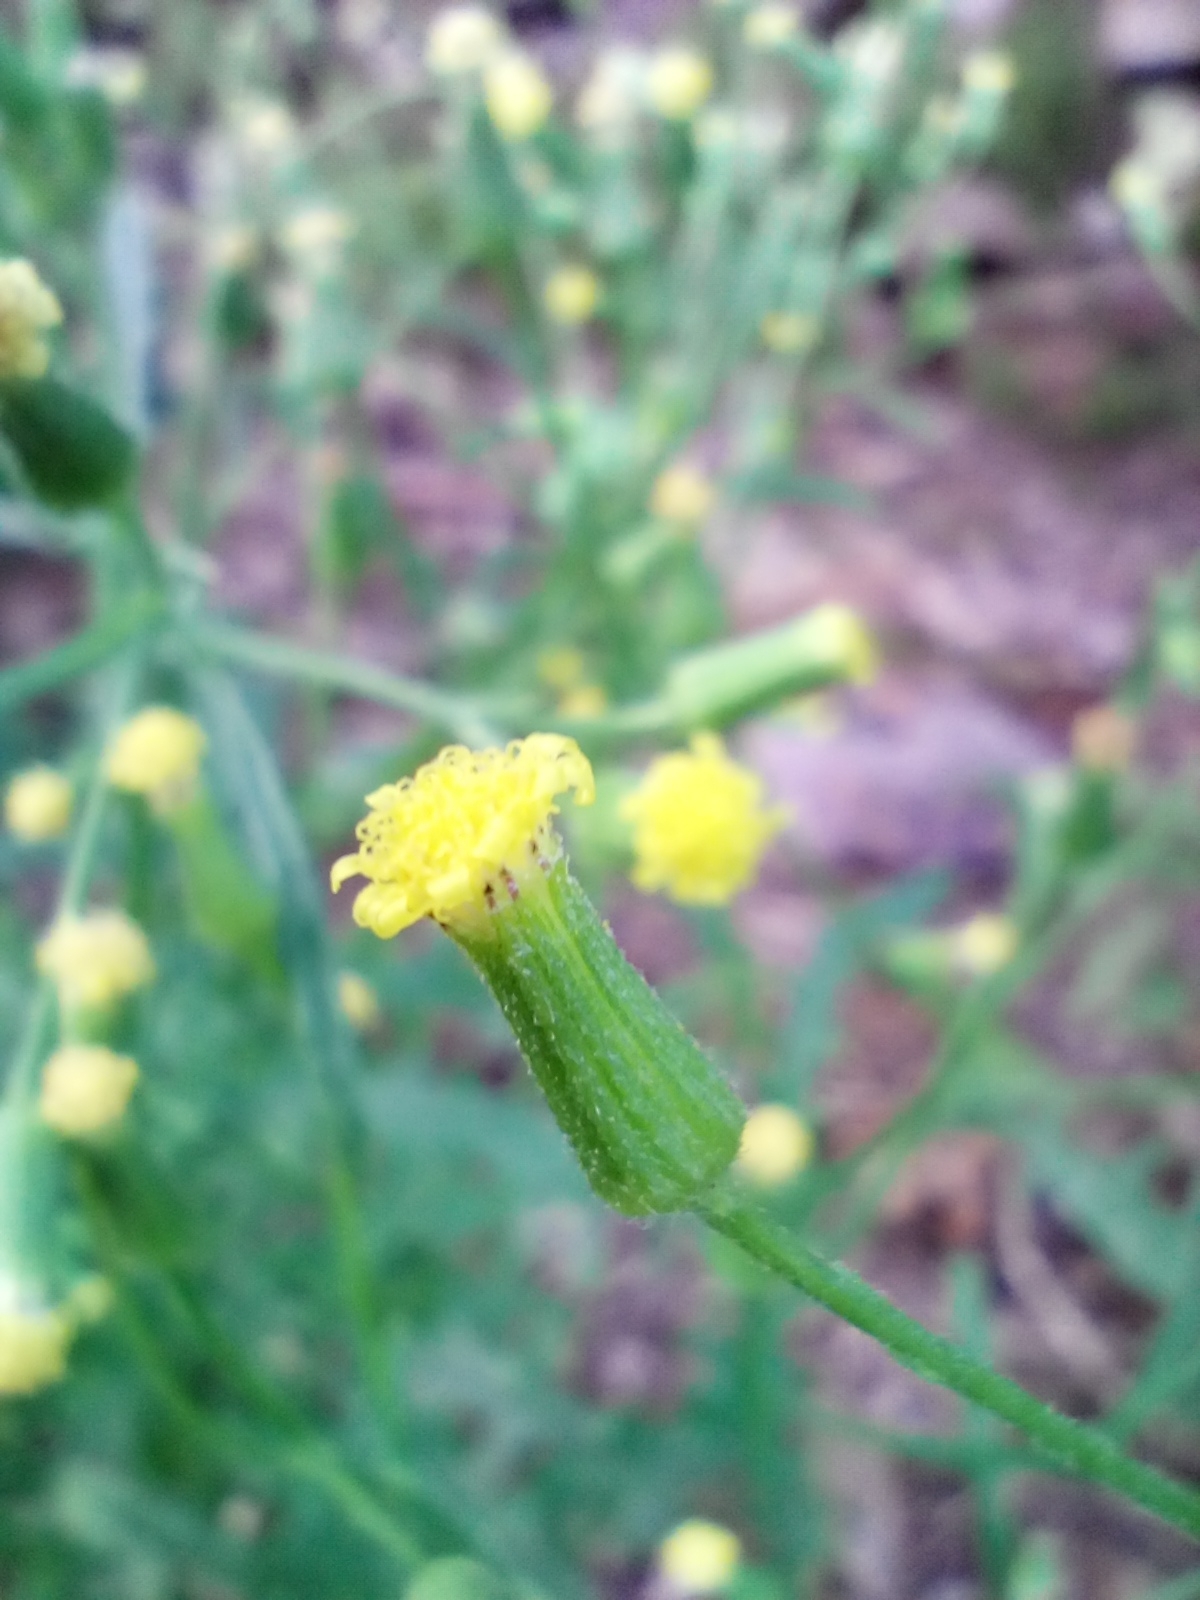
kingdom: Plantae
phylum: Tracheophyta
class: Magnoliopsida
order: Asterales
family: Asteraceae
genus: Senecio
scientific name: Senecio sylvaticus
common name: Woodland ragwort
